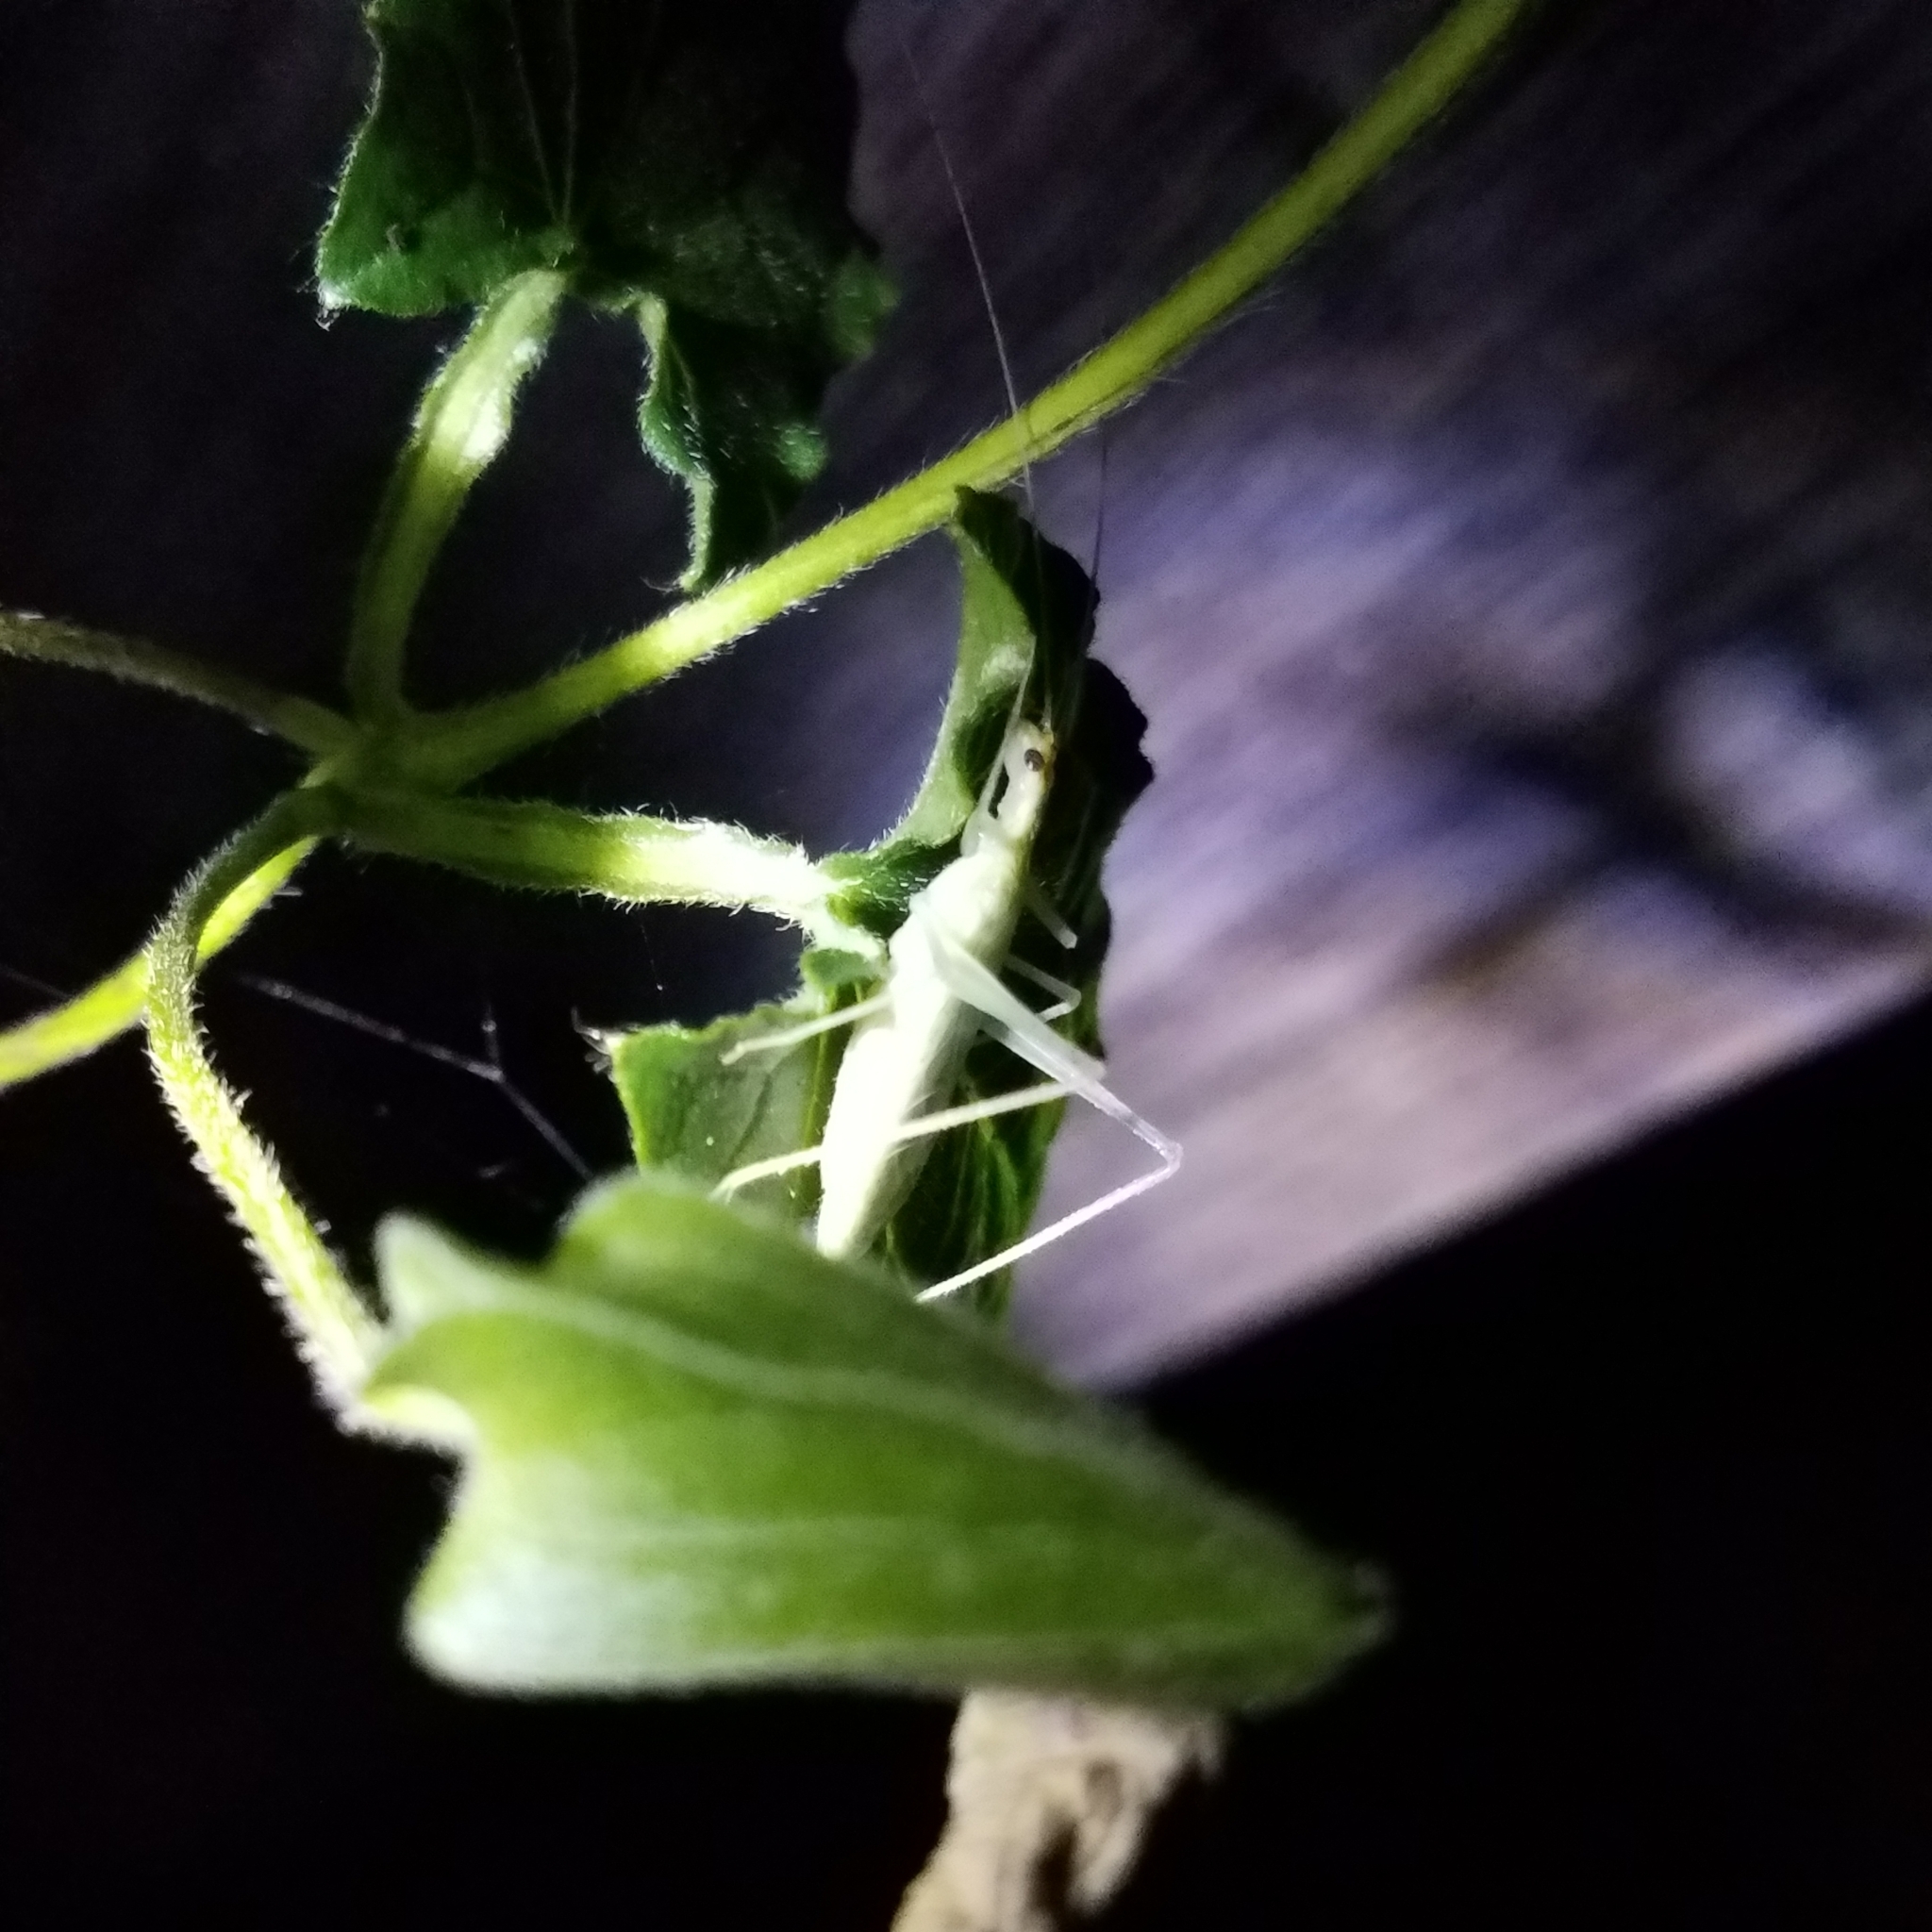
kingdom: Animalia
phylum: Arthropoda
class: Insecta
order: Orthoptera
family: Gryllidae
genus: Oecanthus
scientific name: Oecanthus niveus
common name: Narrow-winged tree cricket
